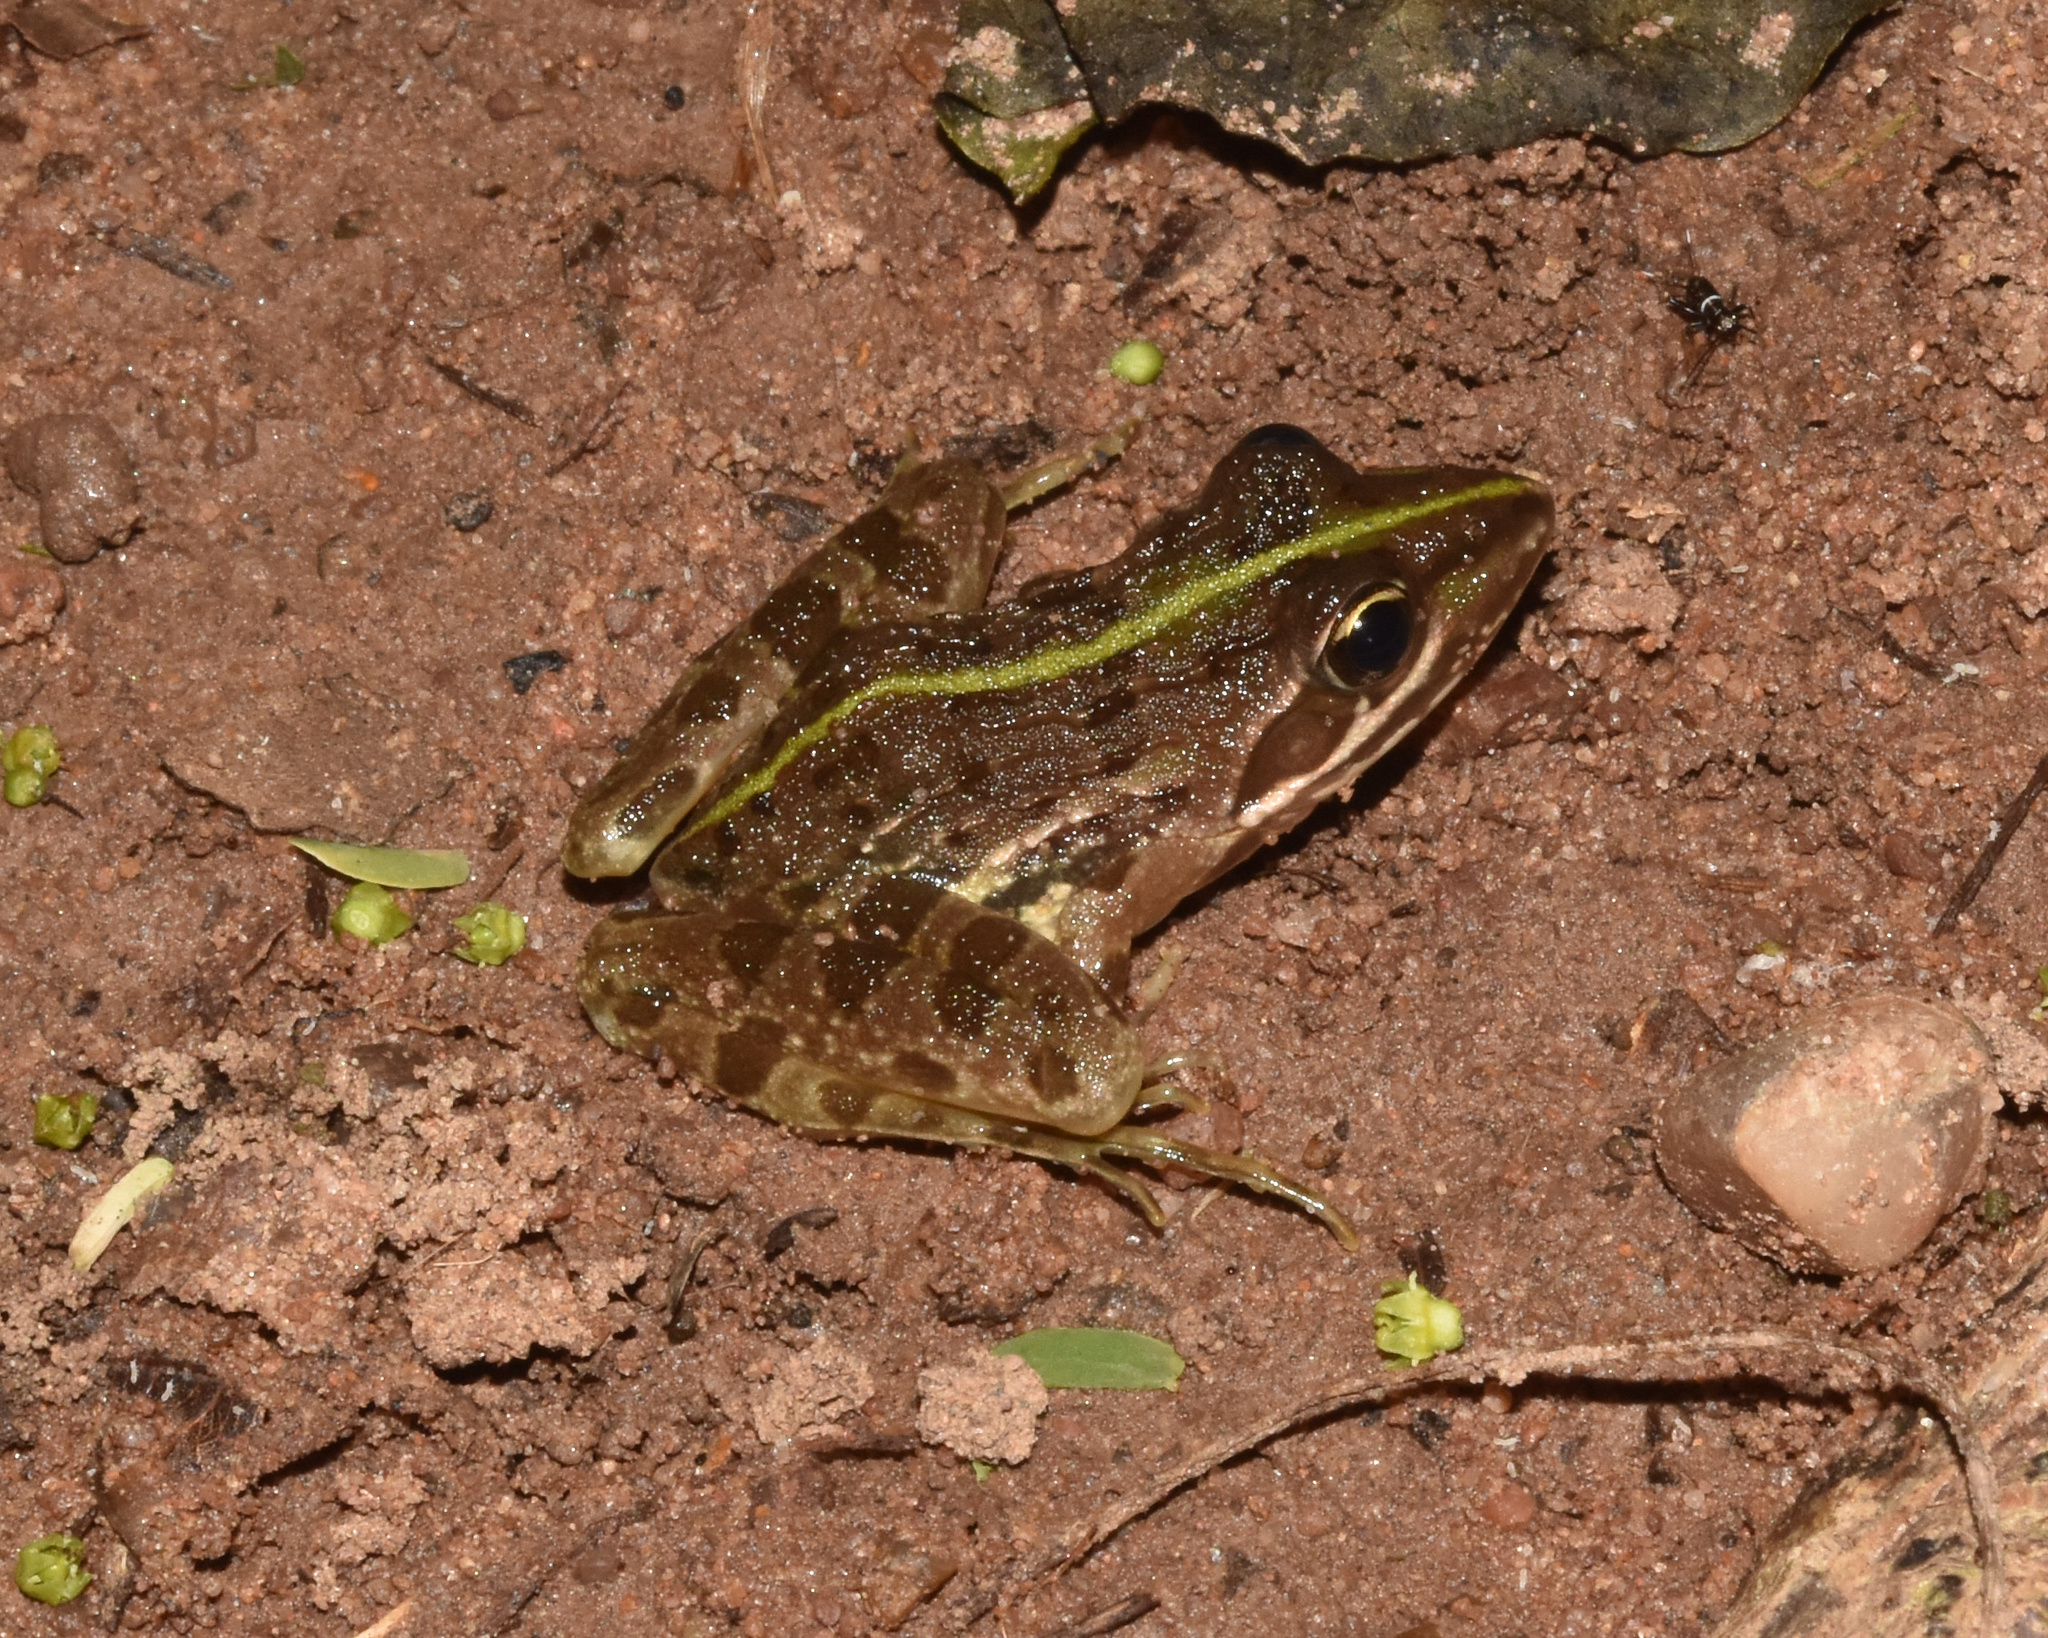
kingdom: Animalia
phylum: Chordata
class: Amphibia
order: Anura
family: Pyxicephalidae
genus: Amietia
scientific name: Amietia delalandii
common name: Delalande's river frog
